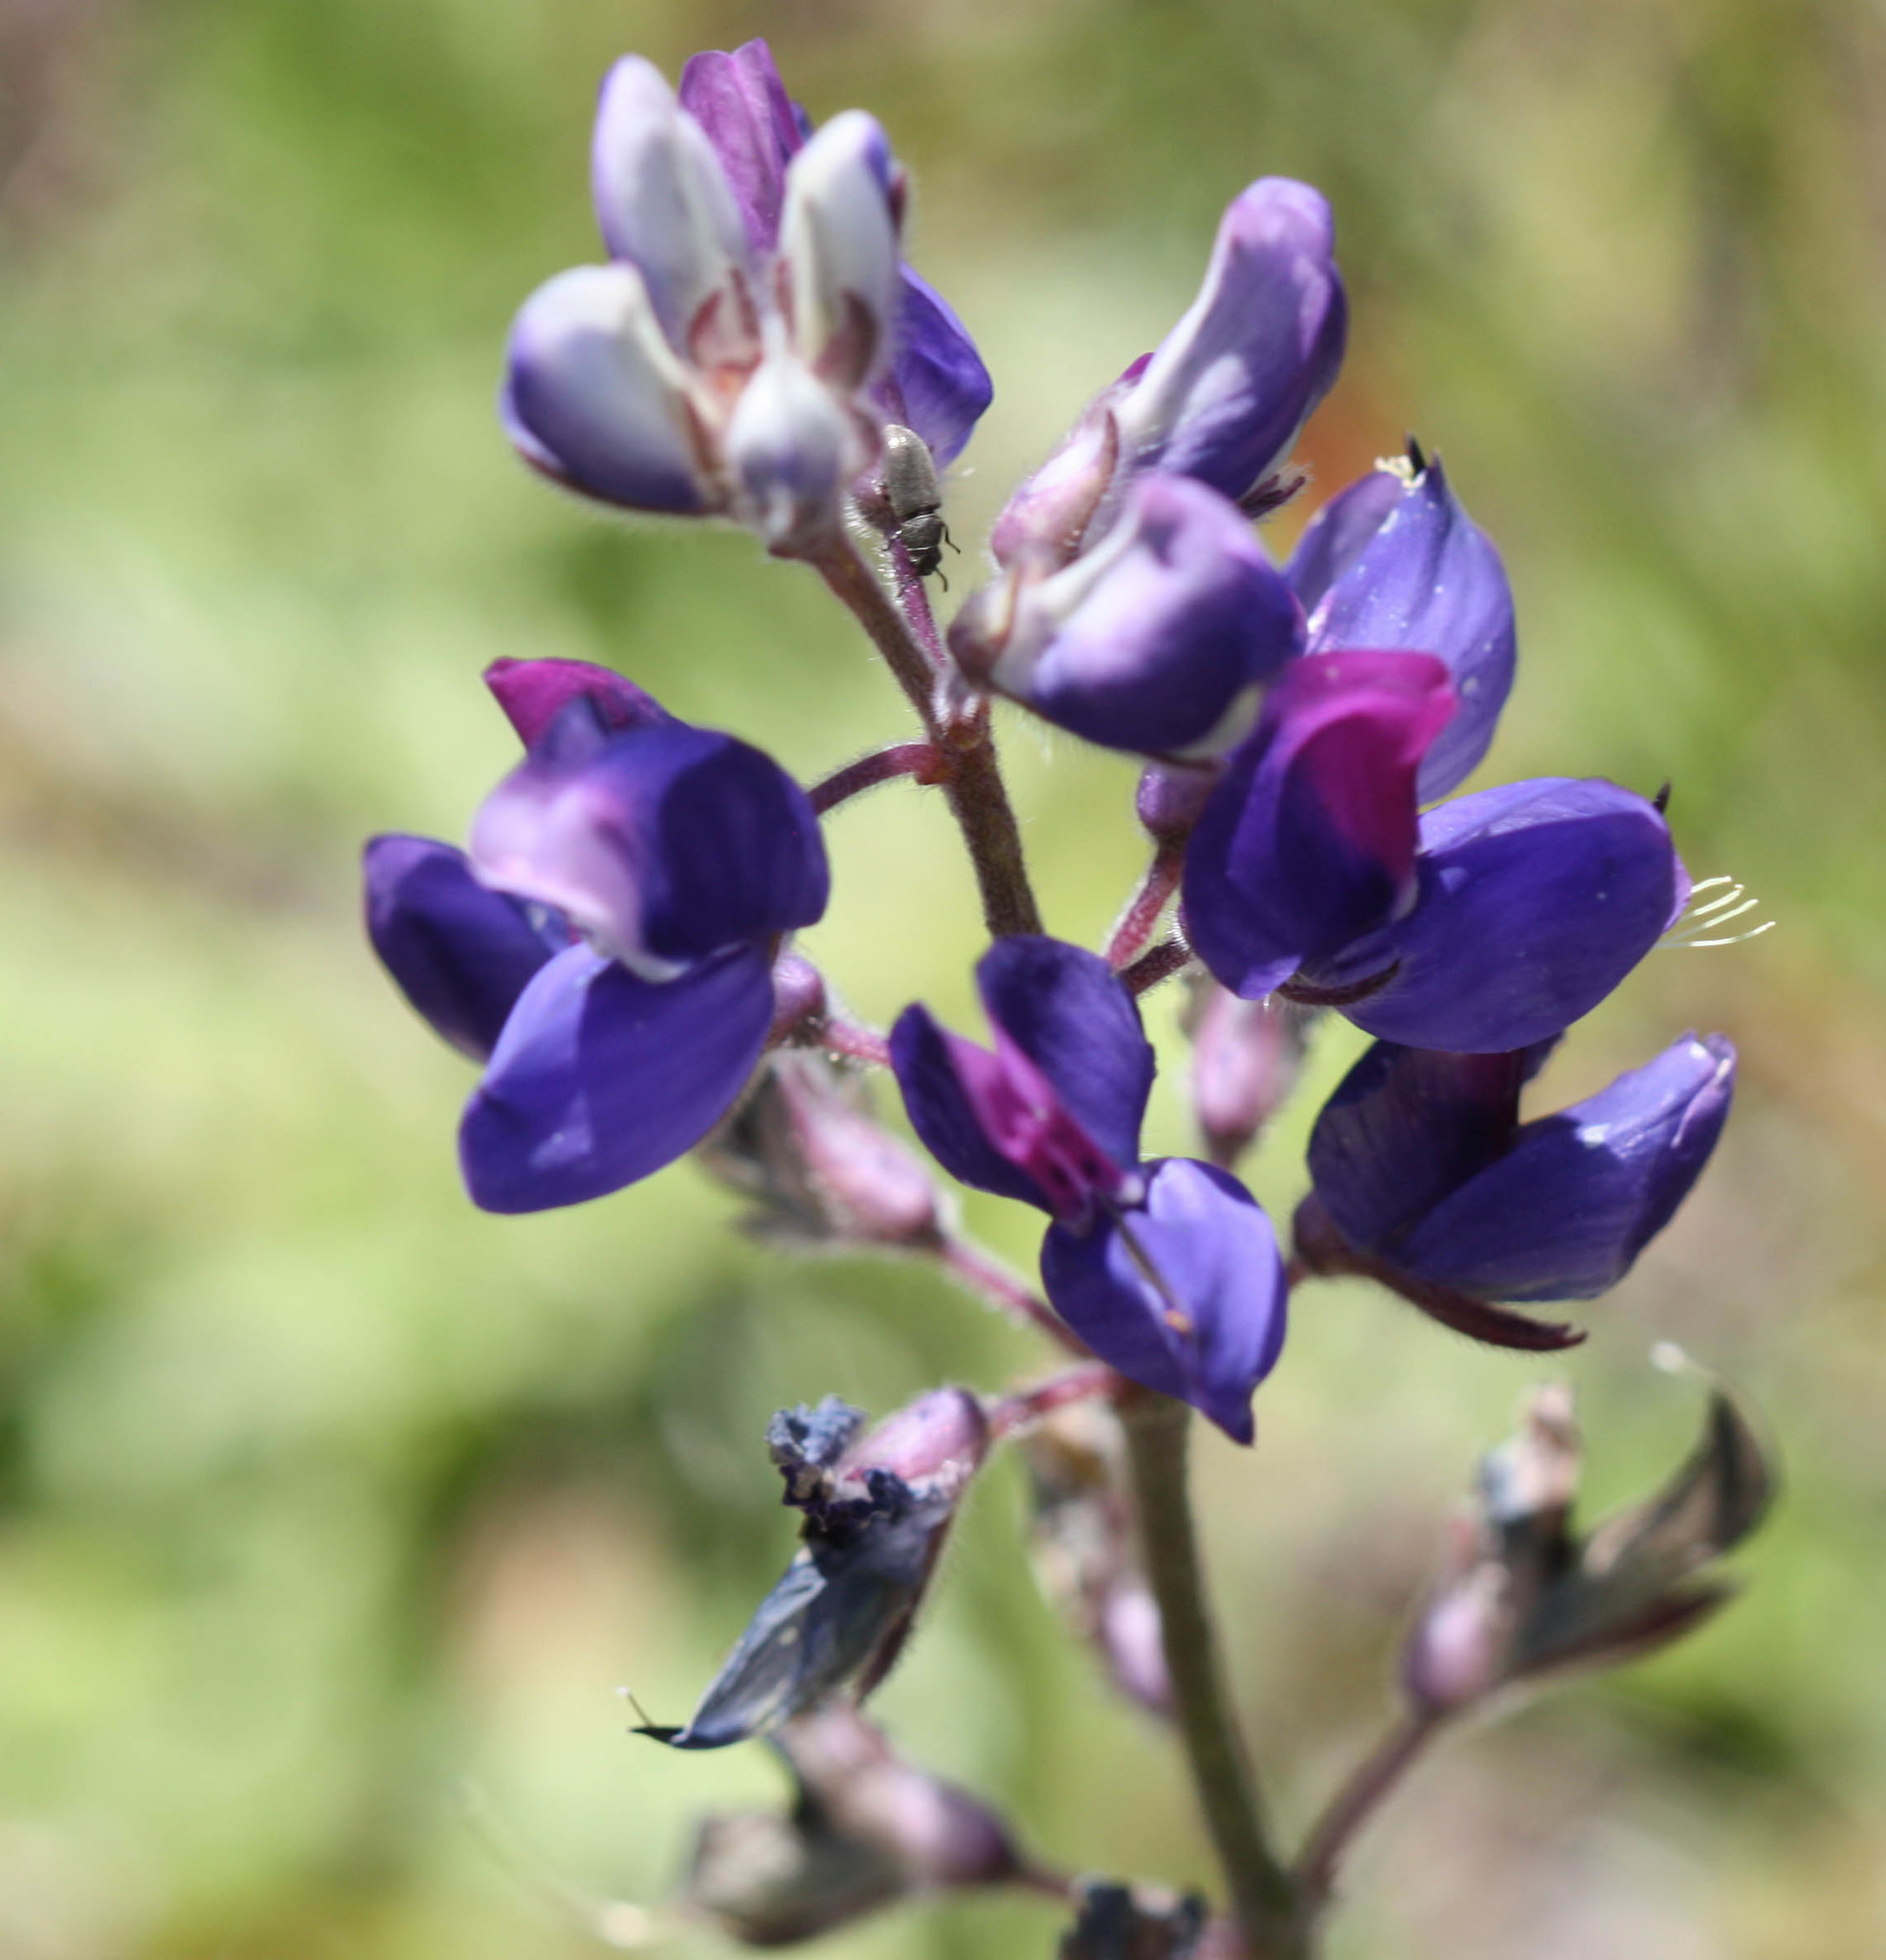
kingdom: Plantae
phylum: Tracheophyta
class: Magnoliopsida
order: Fabales
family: Fabaceae
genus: Lupinus
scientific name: Lupinus nanus
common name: Orean blue lupin
